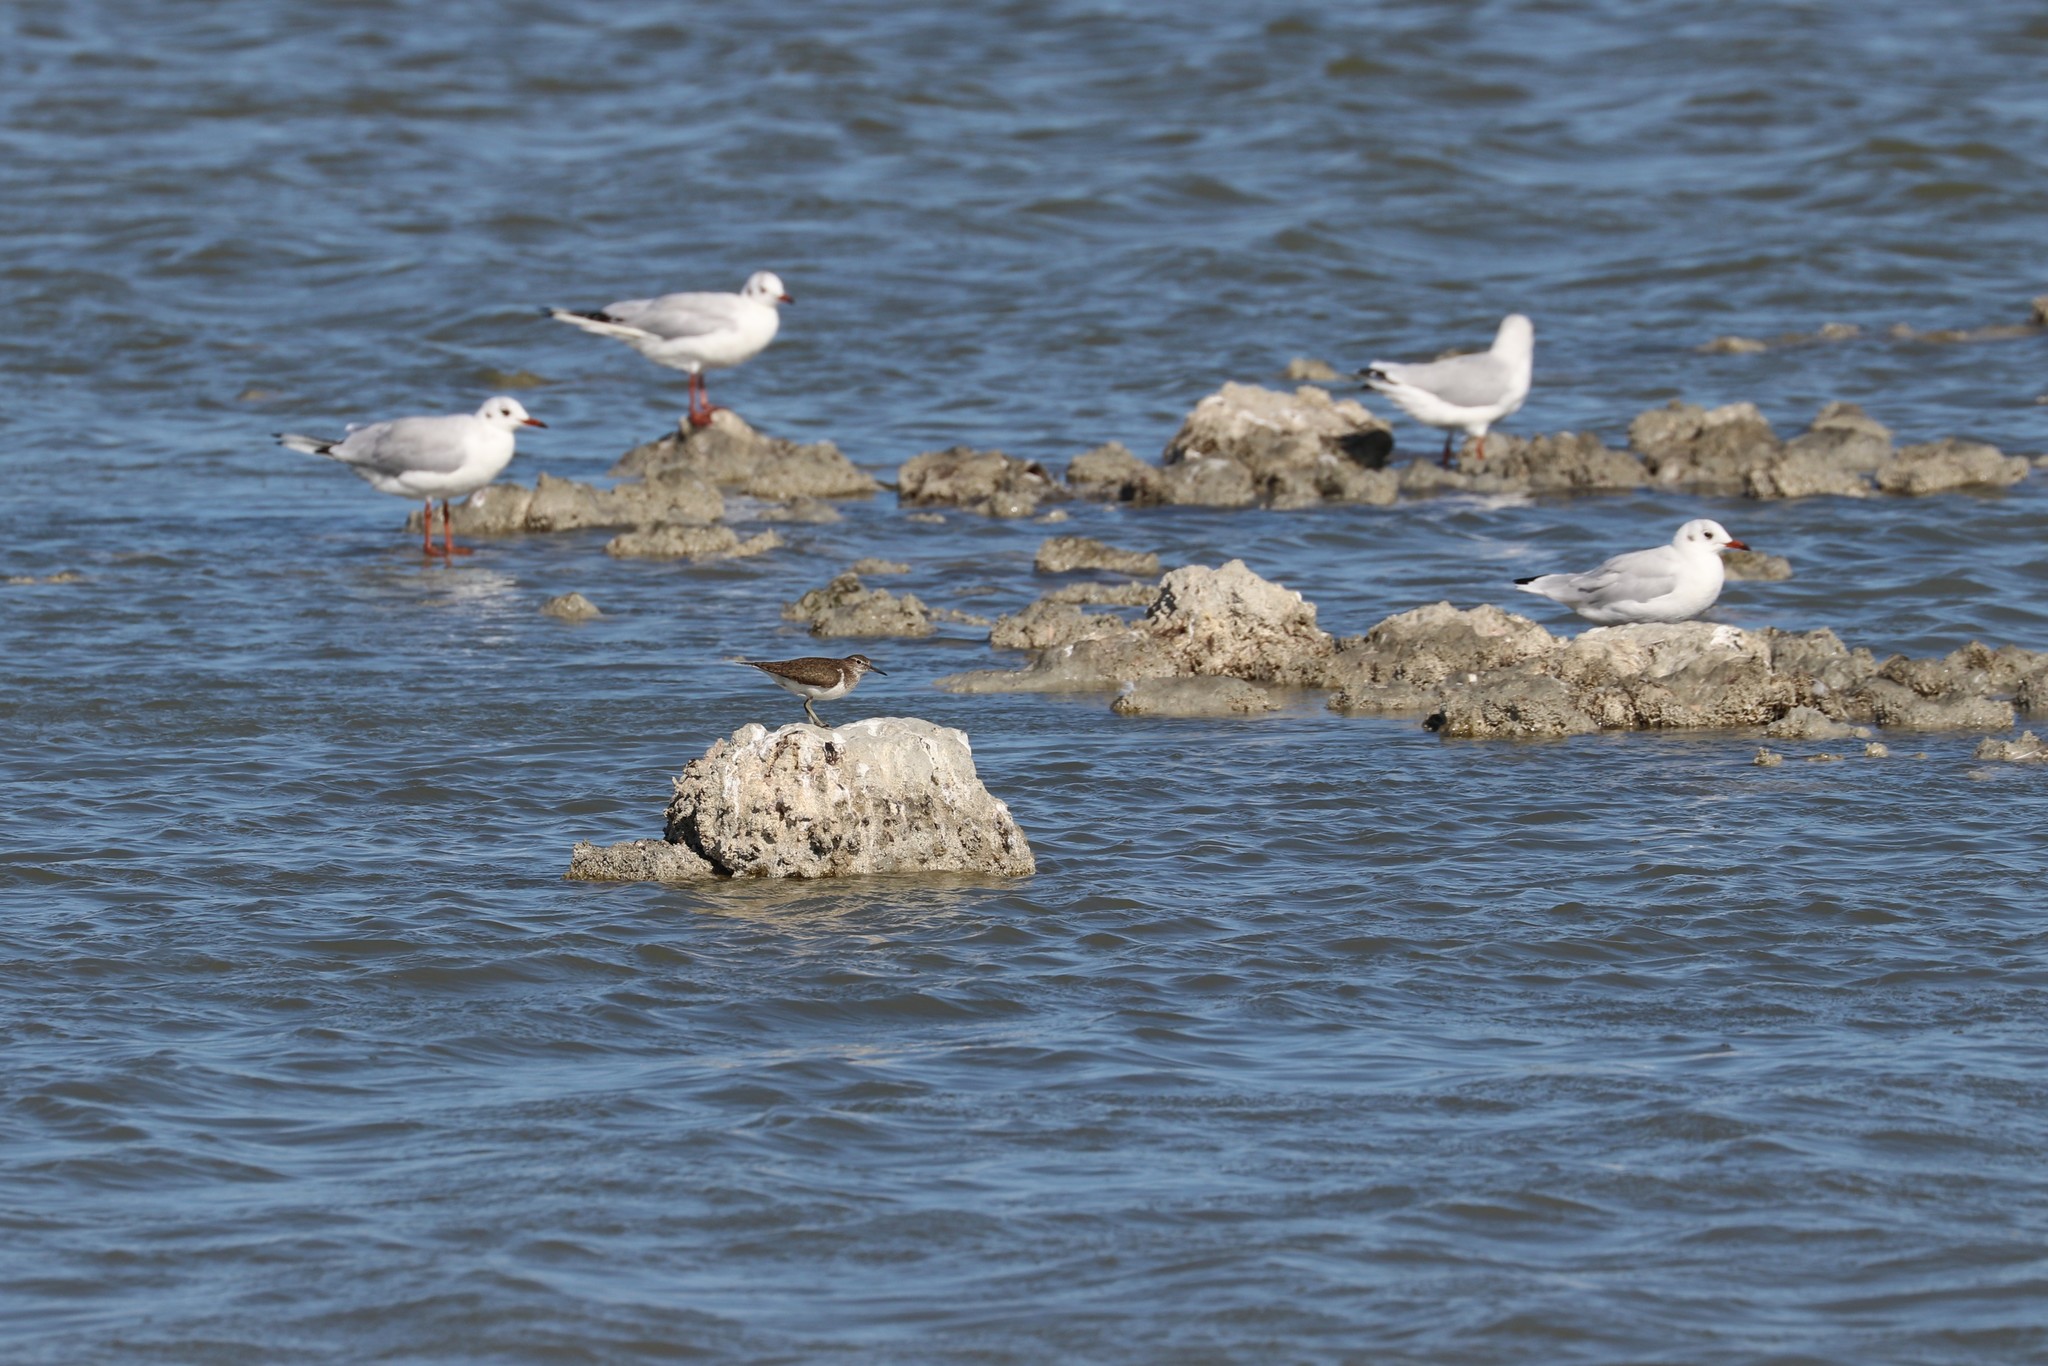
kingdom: Animalia
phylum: Chordata
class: Aves
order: Charadriiformes
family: Scolopacidae
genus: Actitis
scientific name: Actitis hypoleucos
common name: Common sandpiper
